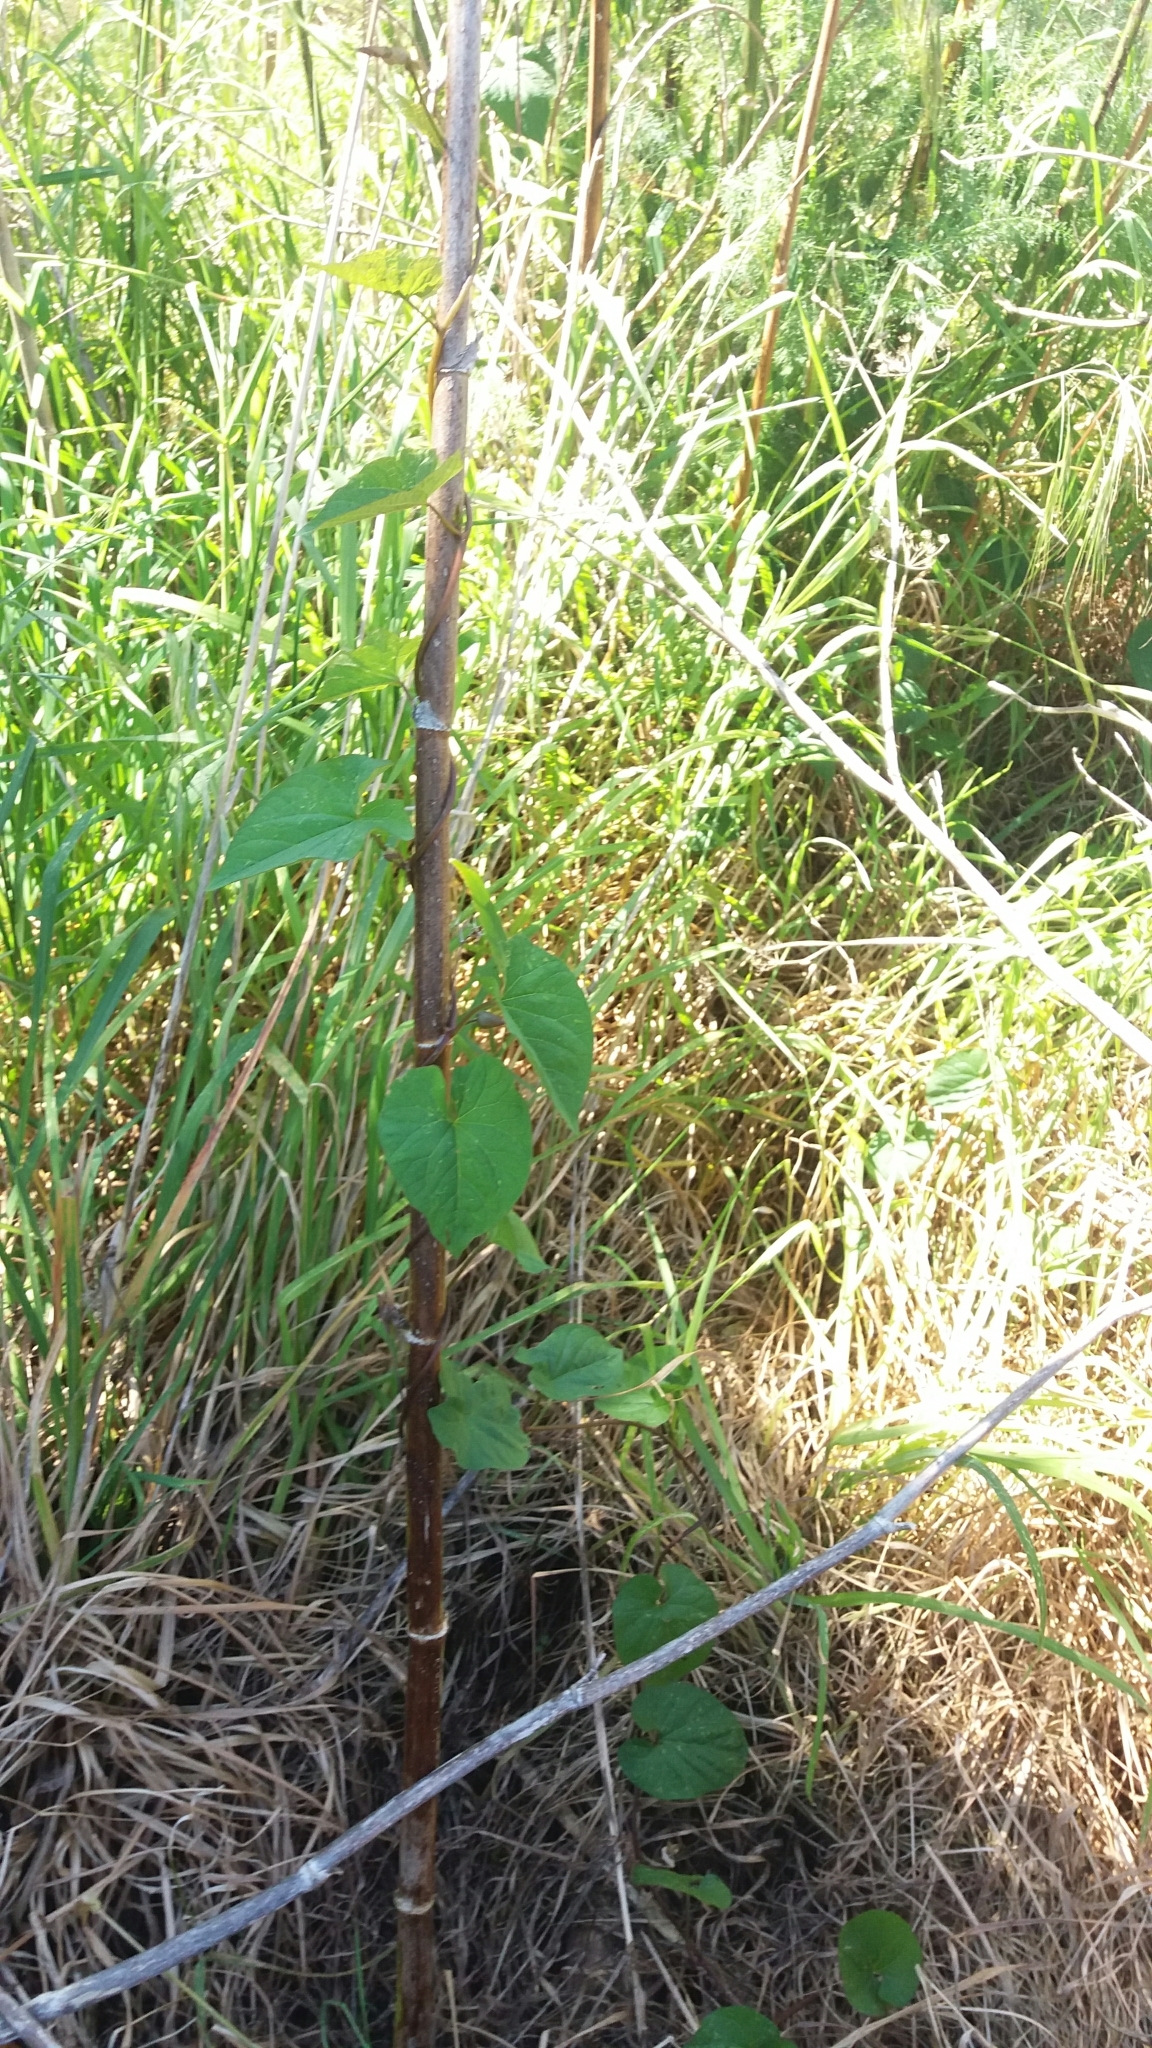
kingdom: Plantae
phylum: Tracheophyta
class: Magnoliopsida
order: Solanales
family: Convolvulaceae
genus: Calystegia
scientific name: Calystegia silvatica
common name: Large bindweed
